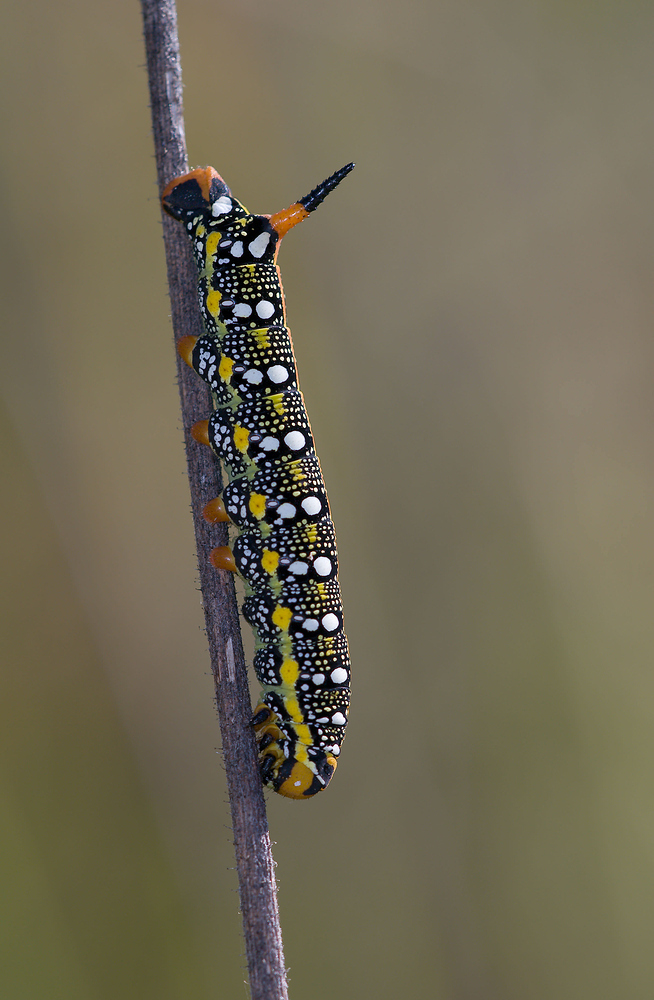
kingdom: Animalia
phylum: Arthropoda
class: Insecta
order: Lepidoptera
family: Sphingidae
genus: Hyles
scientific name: Hyles euphorbiae
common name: Spurge hawk-moth
